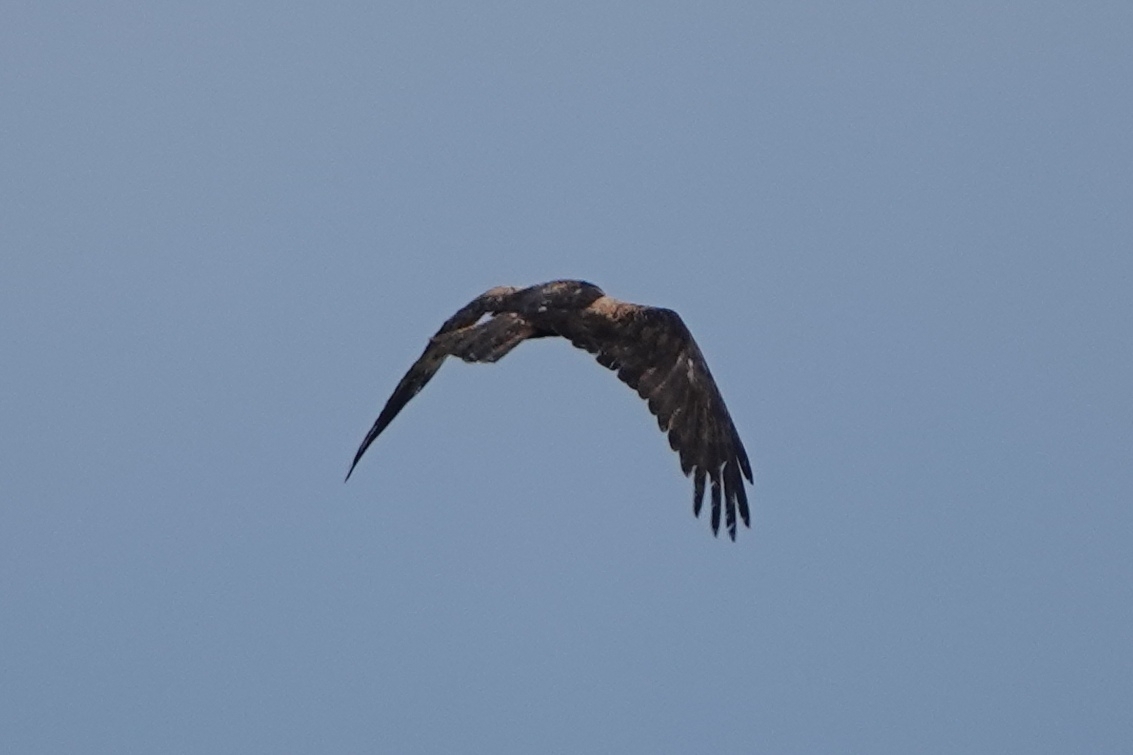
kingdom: Animalia
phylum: Chordata
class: Aves
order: Accipitriformes
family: Accipitridae
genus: Circus
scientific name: Circus aeruginosus
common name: Western marsh harrier
